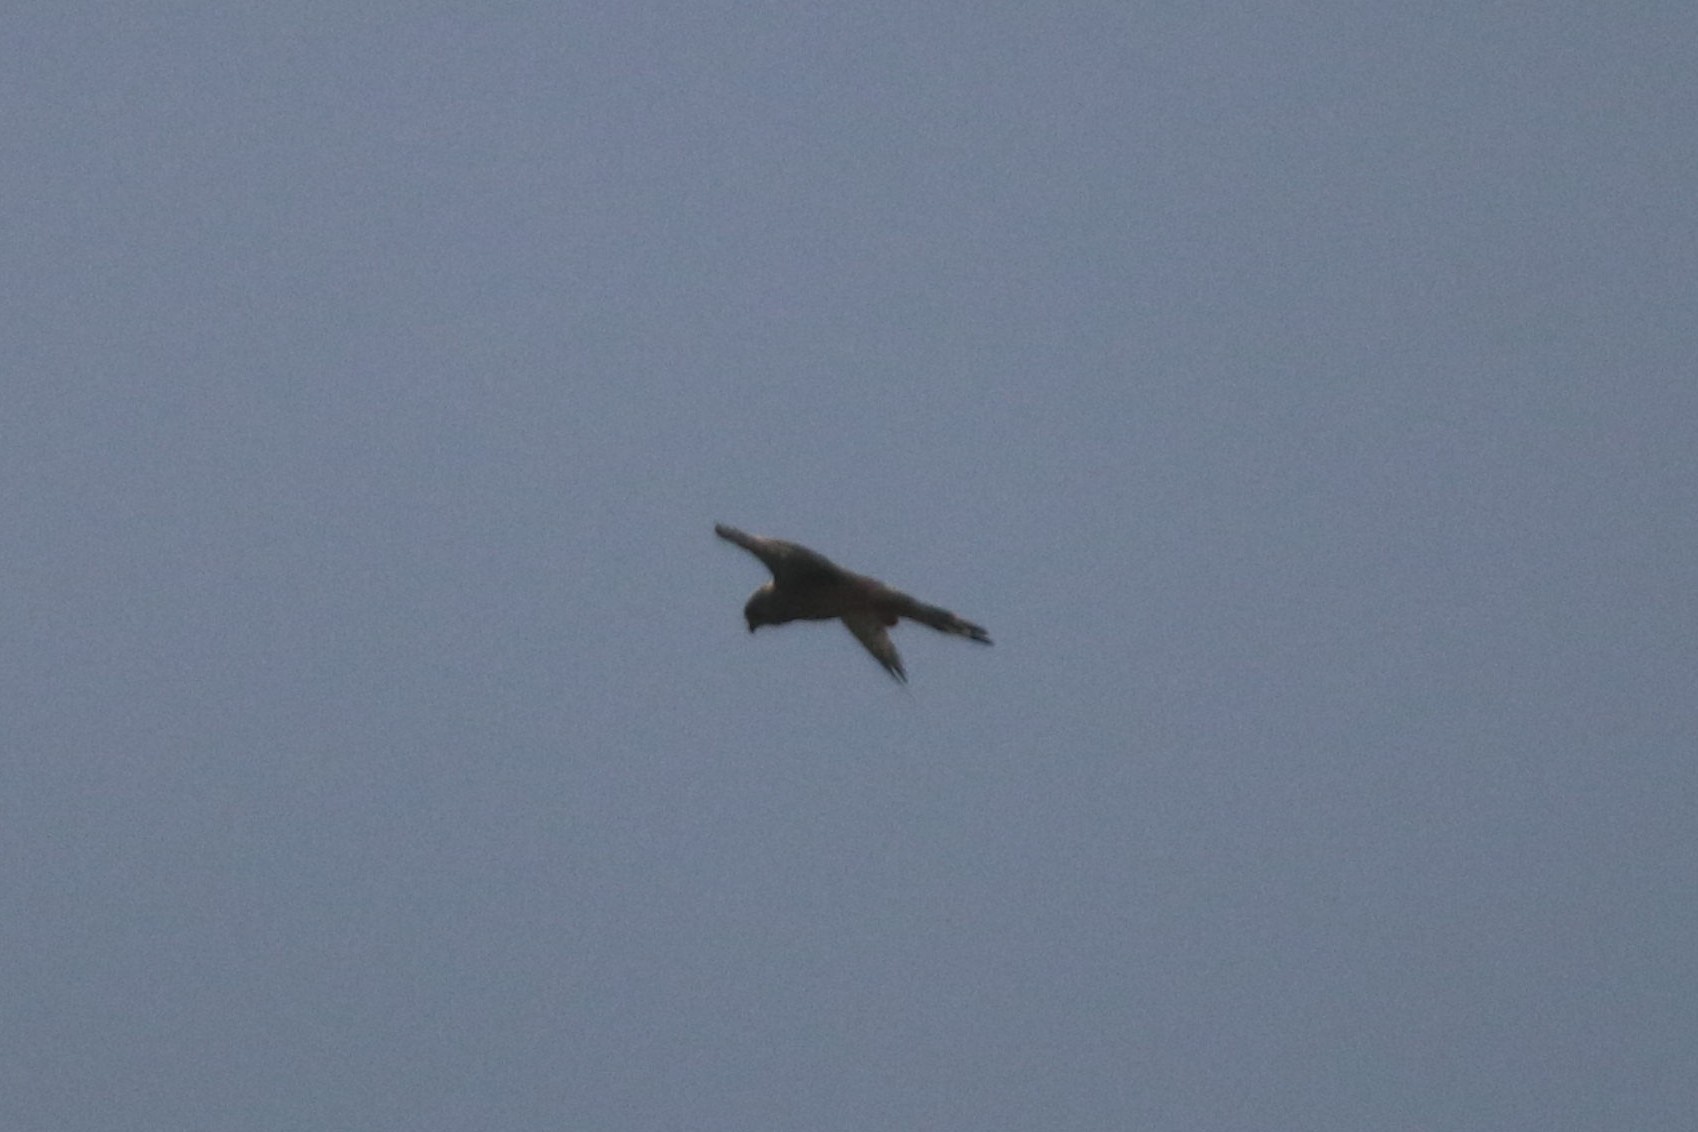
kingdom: Animalia
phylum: Chordata
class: Aves
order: Falconiformes
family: Falconidae
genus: Falco
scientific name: Falco tinnunculus
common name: Common kestrel
